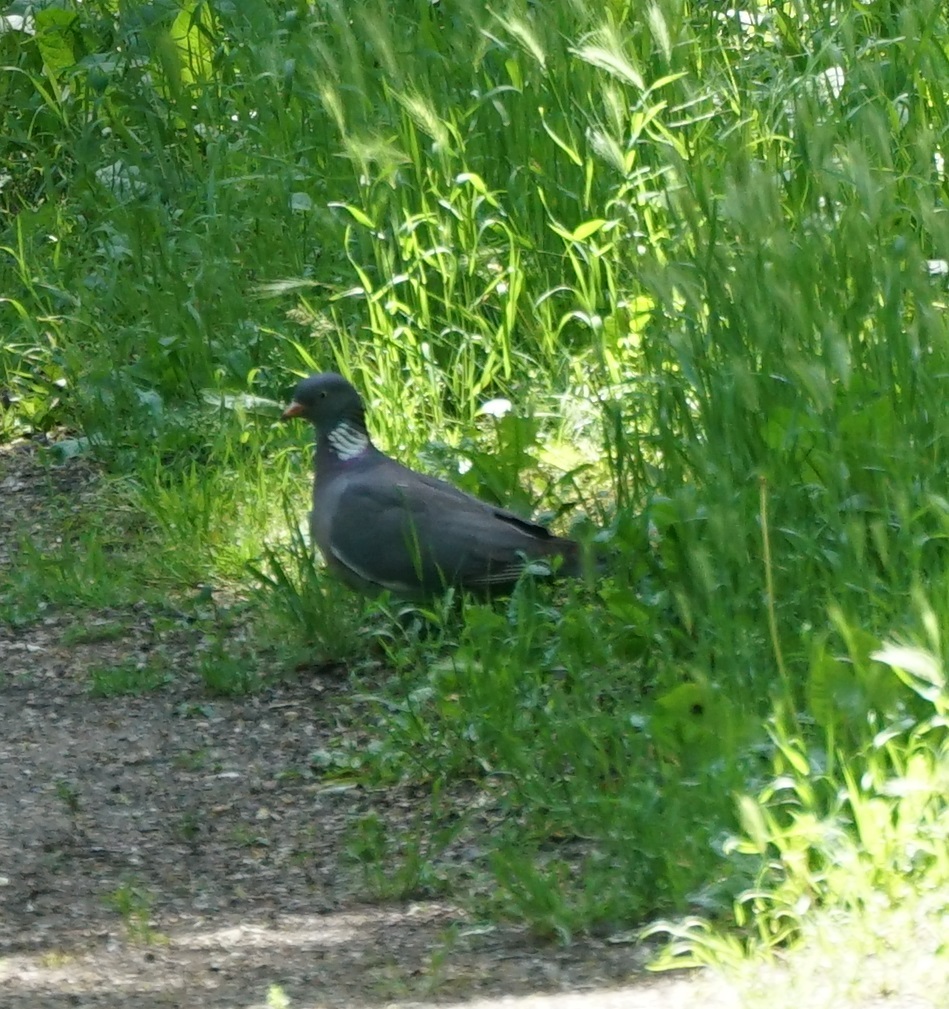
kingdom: Animalia
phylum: Chordata
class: Aves
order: Columbiformes
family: Columbidae
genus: Columba
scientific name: Columba palumbus
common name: Common wood pigeon
